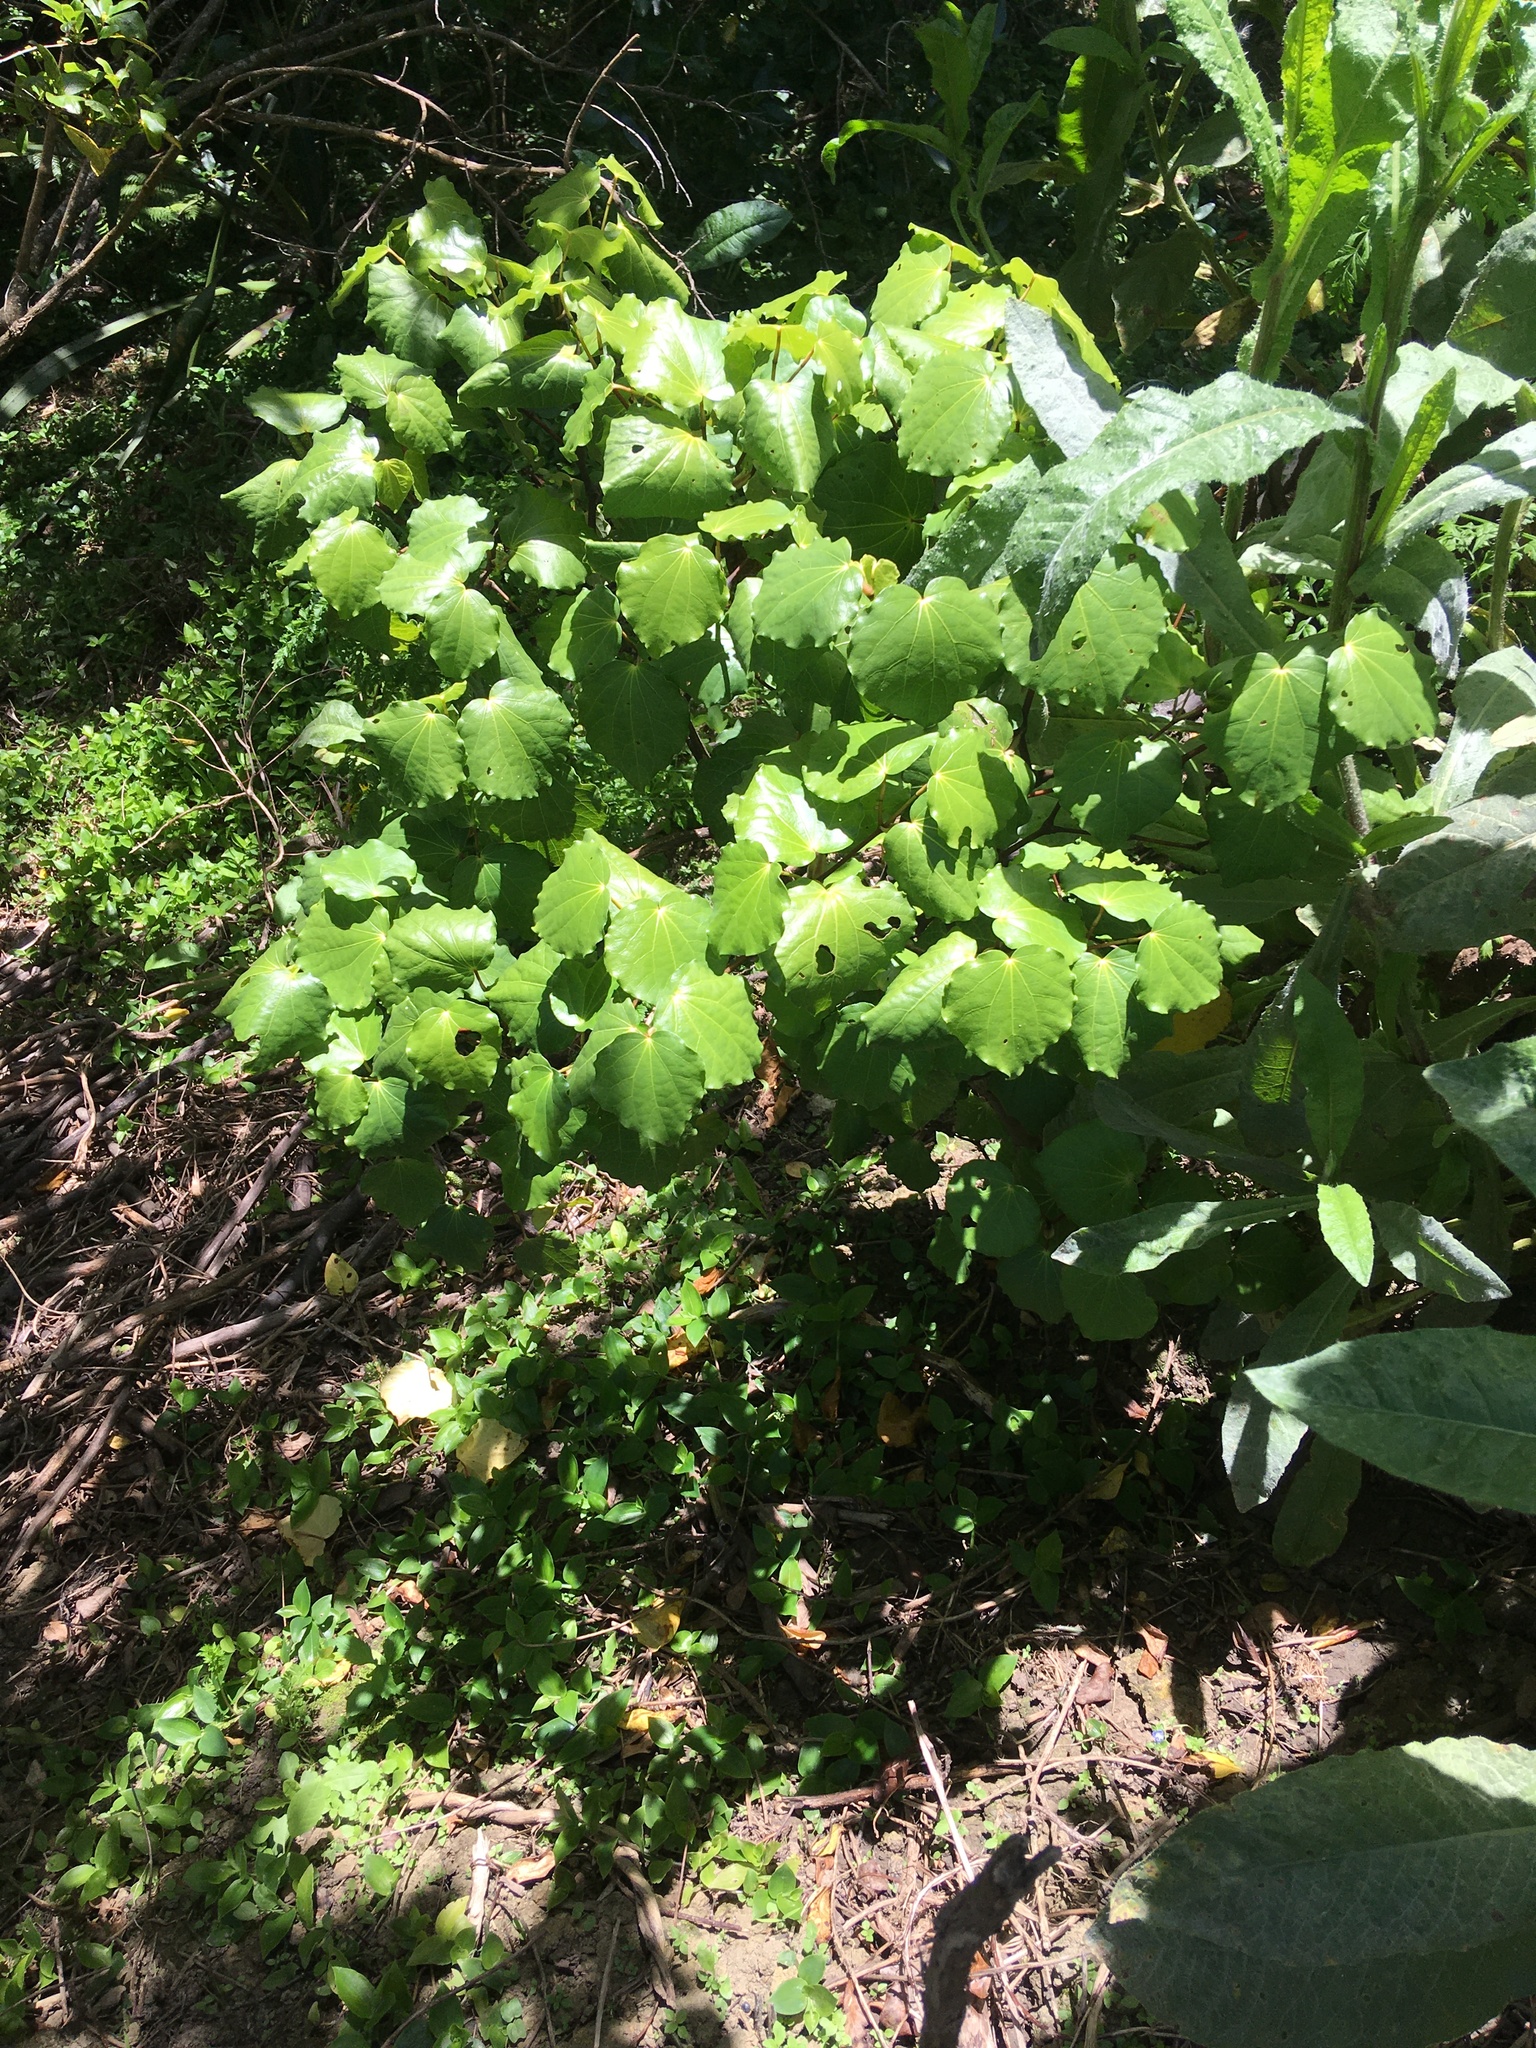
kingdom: Plantae
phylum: Tracheophyta
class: Magnoliopsida
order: Piperales
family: Piperaceae
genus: Macropiper
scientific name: Macropiper excelsum
